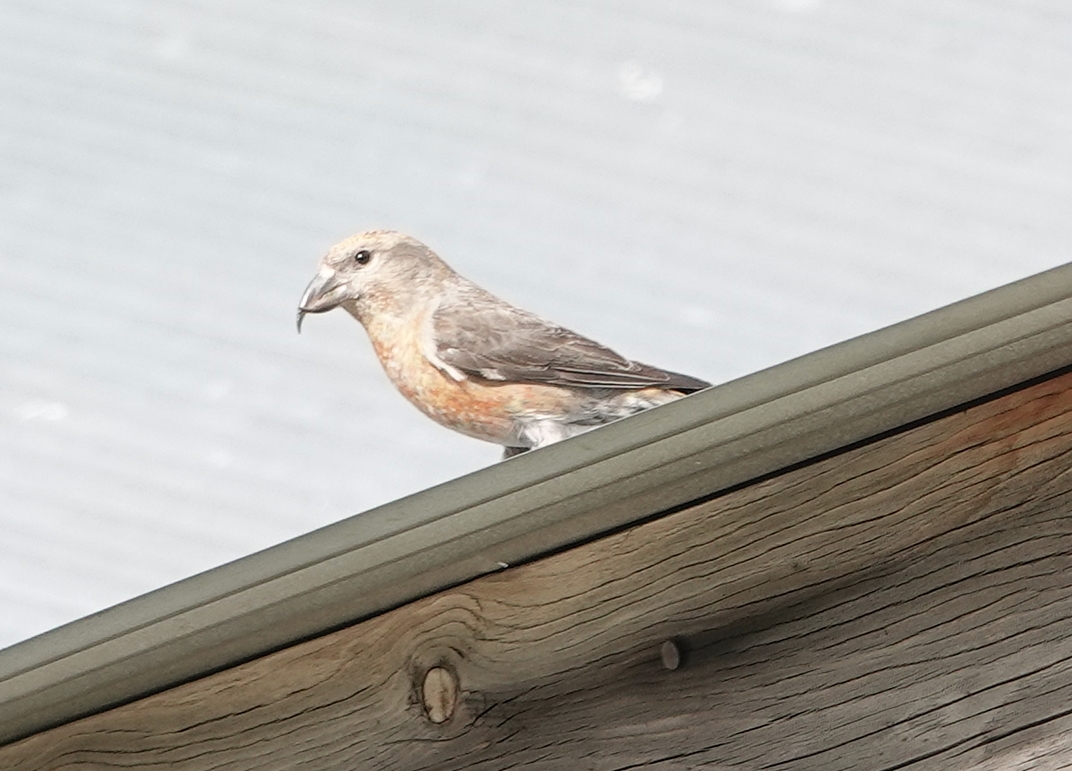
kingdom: Animalia
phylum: Chordata
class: Aves
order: Passeriformes
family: Fringillidae
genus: Loxia
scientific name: Loxia curvirostra
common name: Red crossbill
